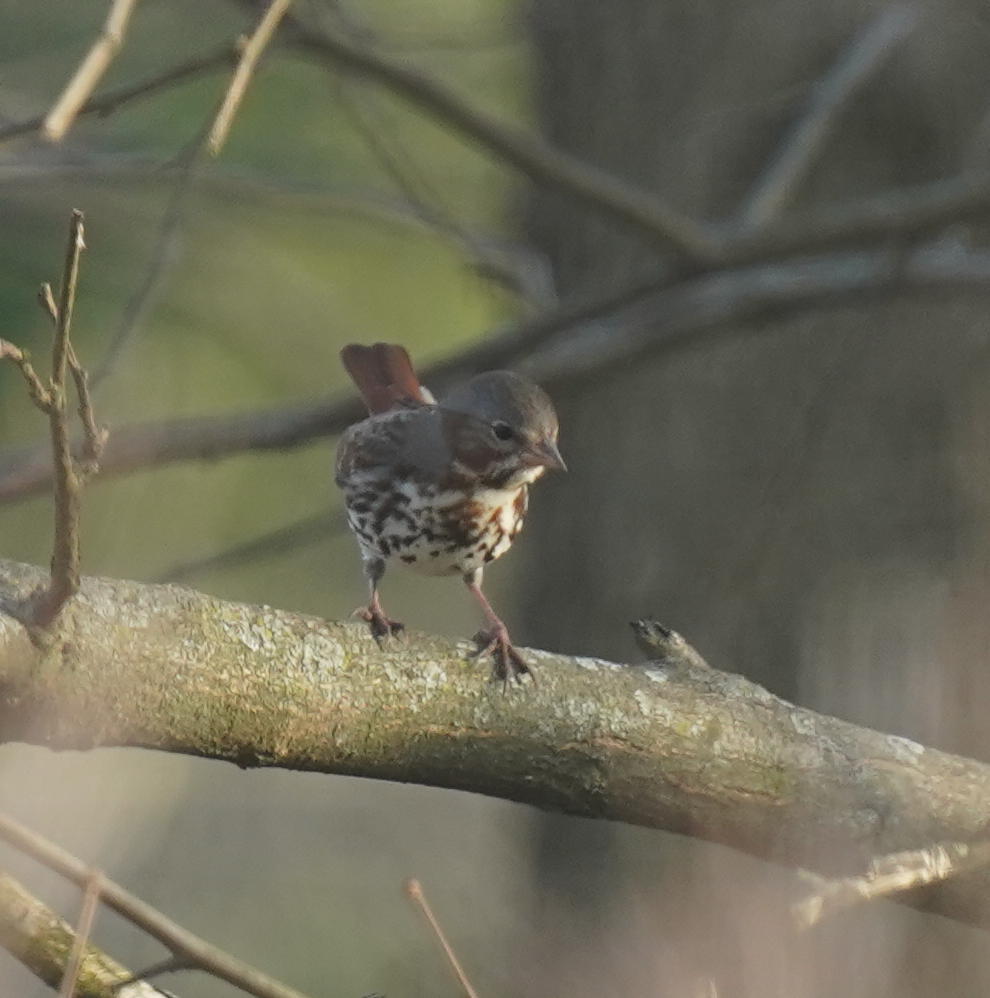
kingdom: Animalia
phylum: Chordata
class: Aves
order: Passeriformes
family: Passerellidae
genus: Passerella
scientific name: Passerella iliaca
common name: Fox sparrow
